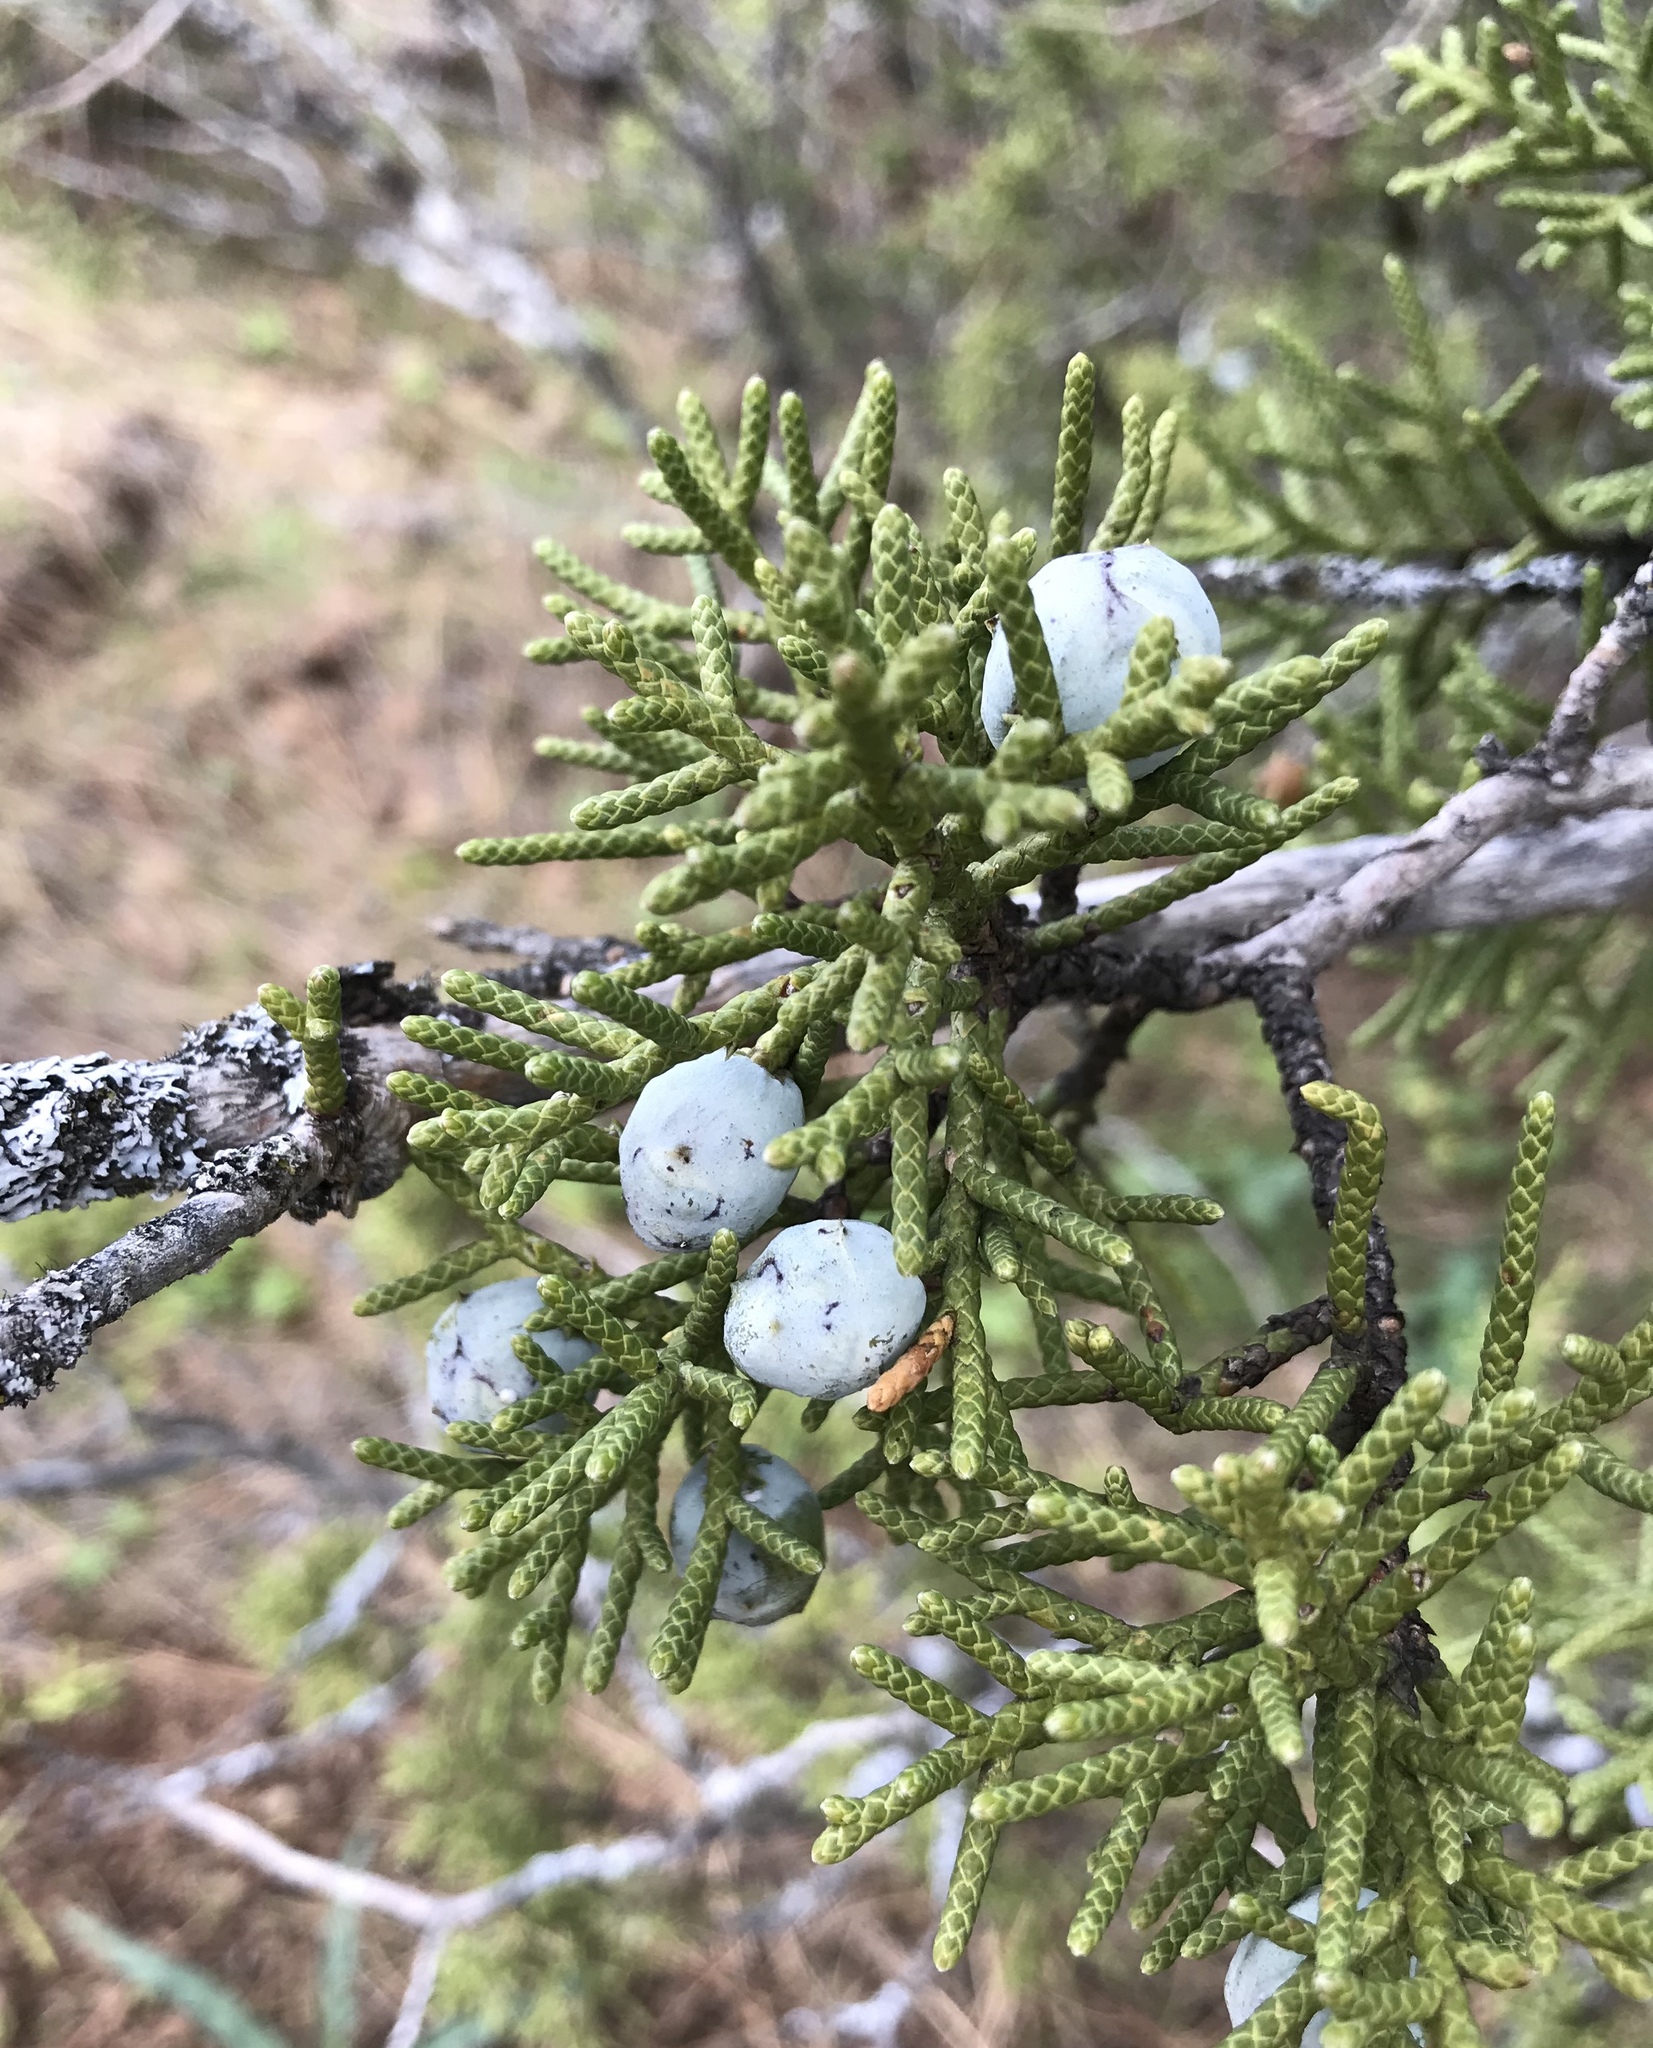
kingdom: Plantae
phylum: Tracheophyta
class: Pinopsida
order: Pinales
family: Cupressaceae
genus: Juniperus
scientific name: Juniperus californica
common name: California juniper
